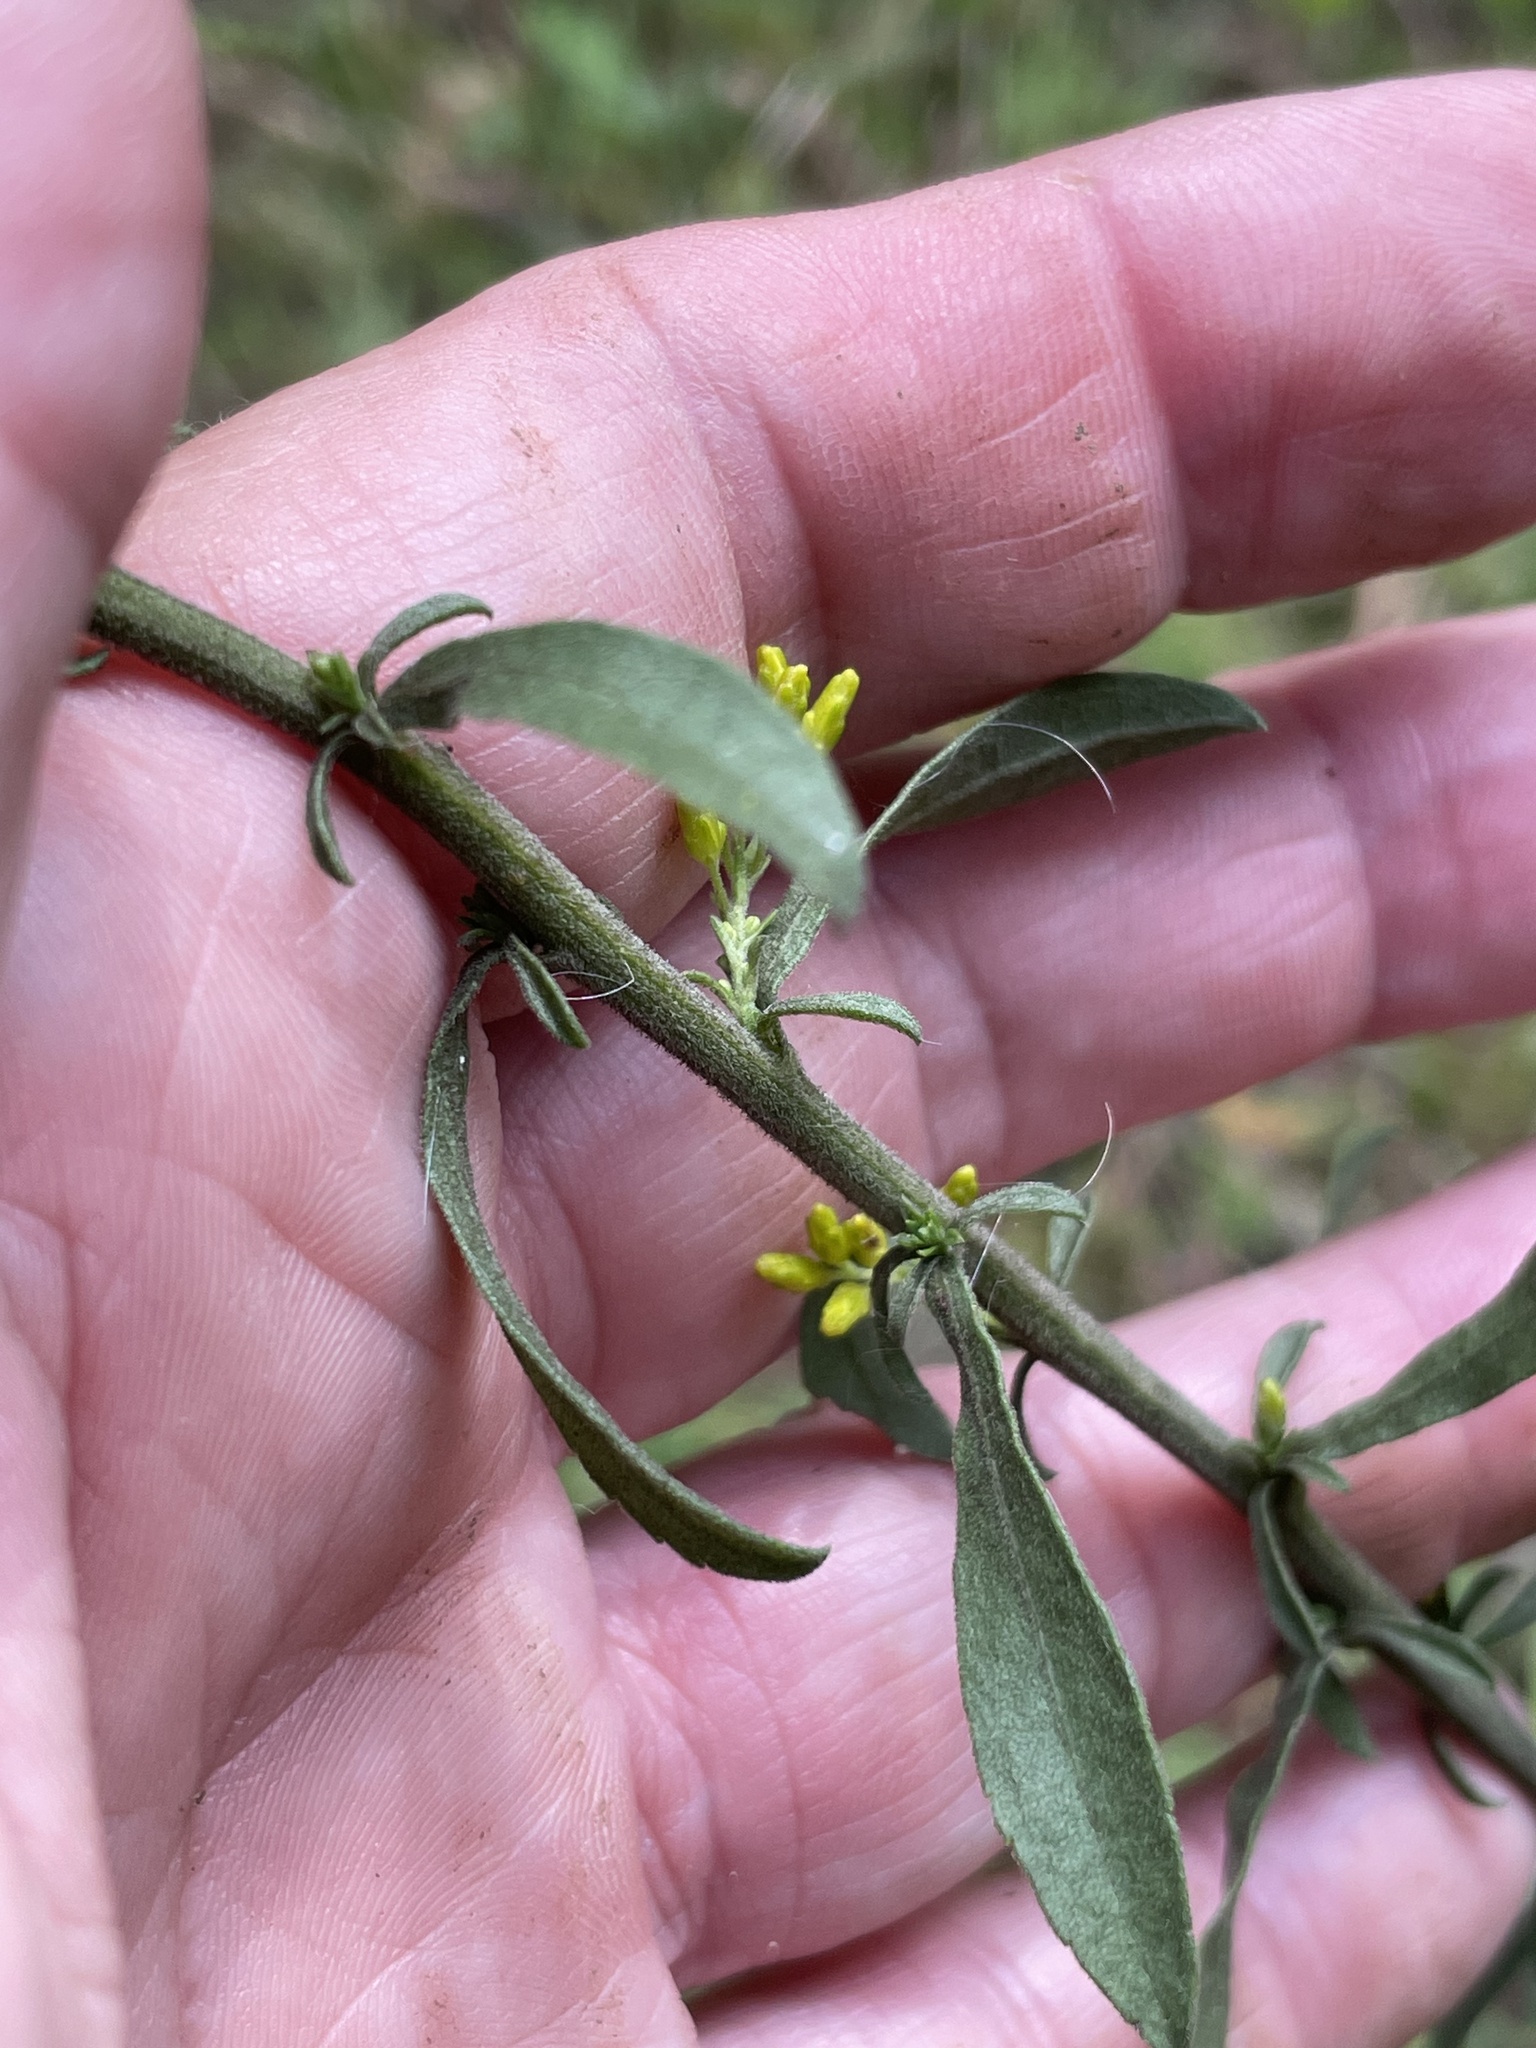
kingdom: Plantae
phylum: Tracheophyta
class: Magnoliopsida
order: Asterales
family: Asteraceae
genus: Solidago
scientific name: Solidago nemoralis
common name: Grey goldenrod
